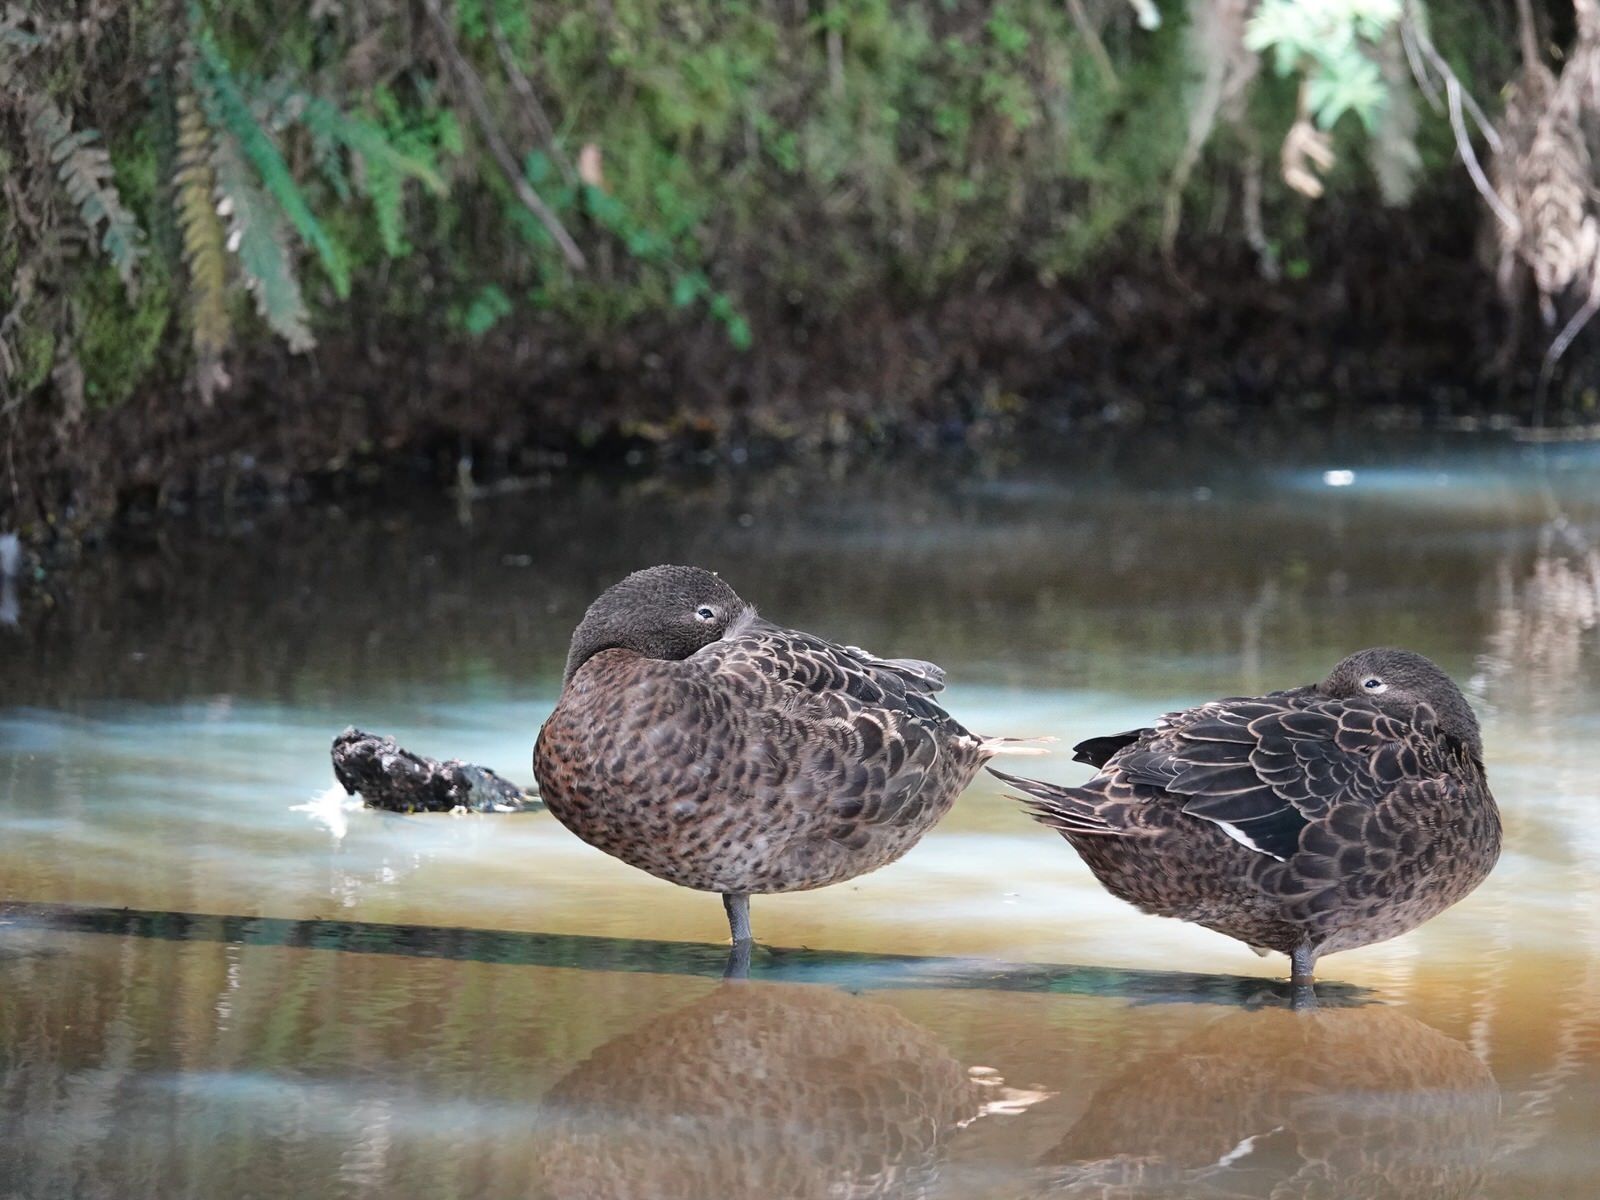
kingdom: Animalia
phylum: Chordata
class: Aves
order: Anseriformes
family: Anatidae
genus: Anas
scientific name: Anas chlorotis
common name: Brown teal
